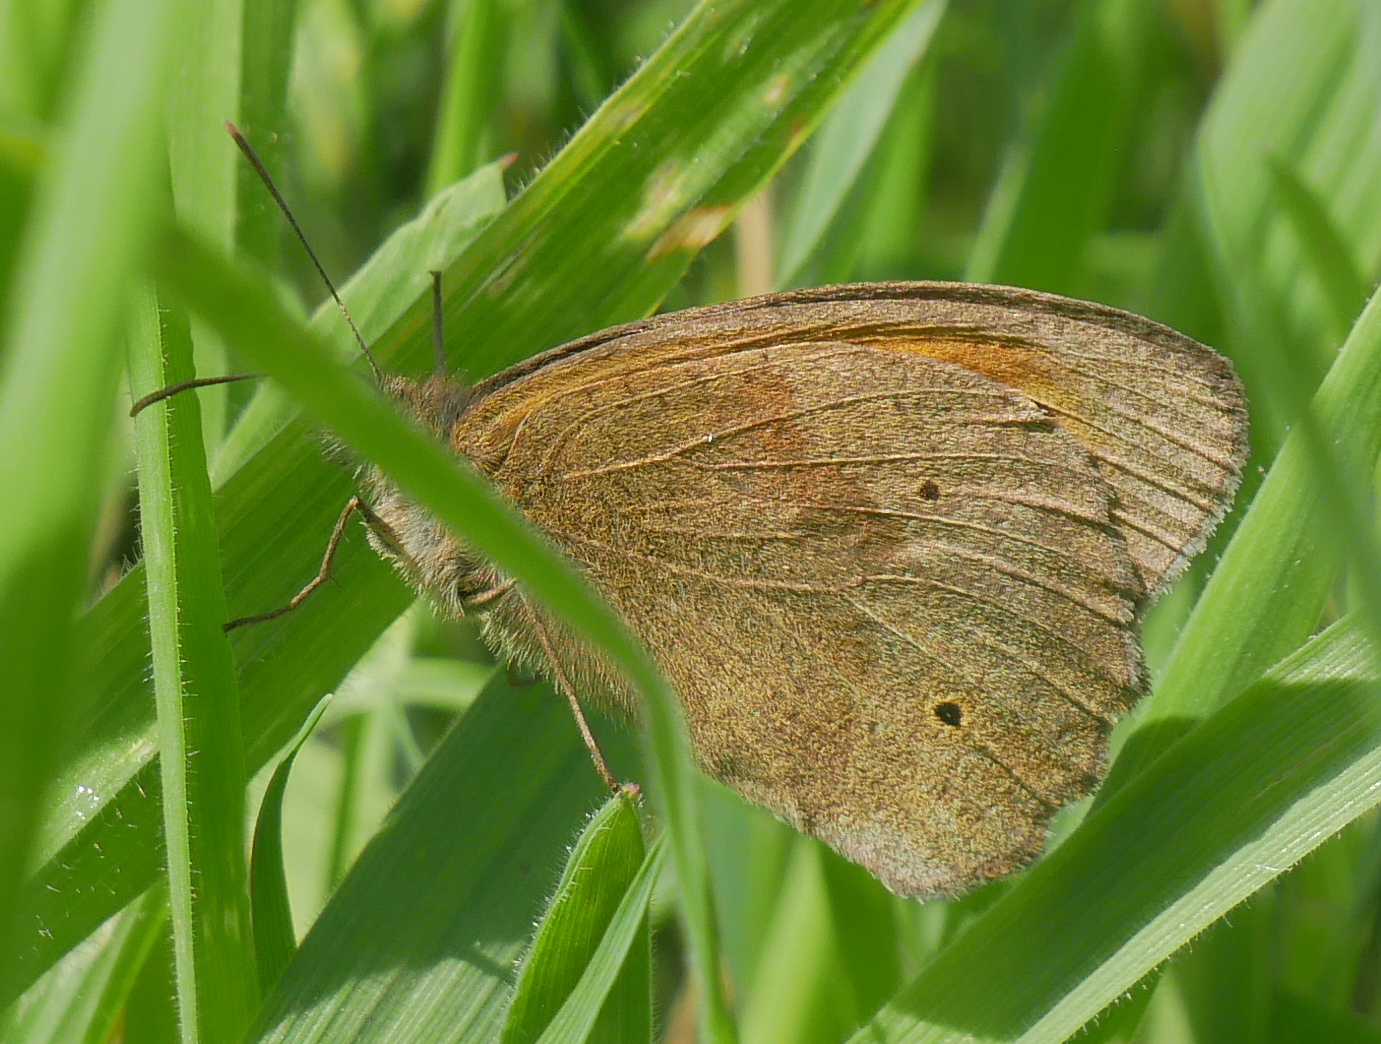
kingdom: Animalia
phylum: Arthropoda
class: Insecta
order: Lepidoptera
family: Nymphalidae
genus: Maniola
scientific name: Maniola jurtina
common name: Meadow brown
